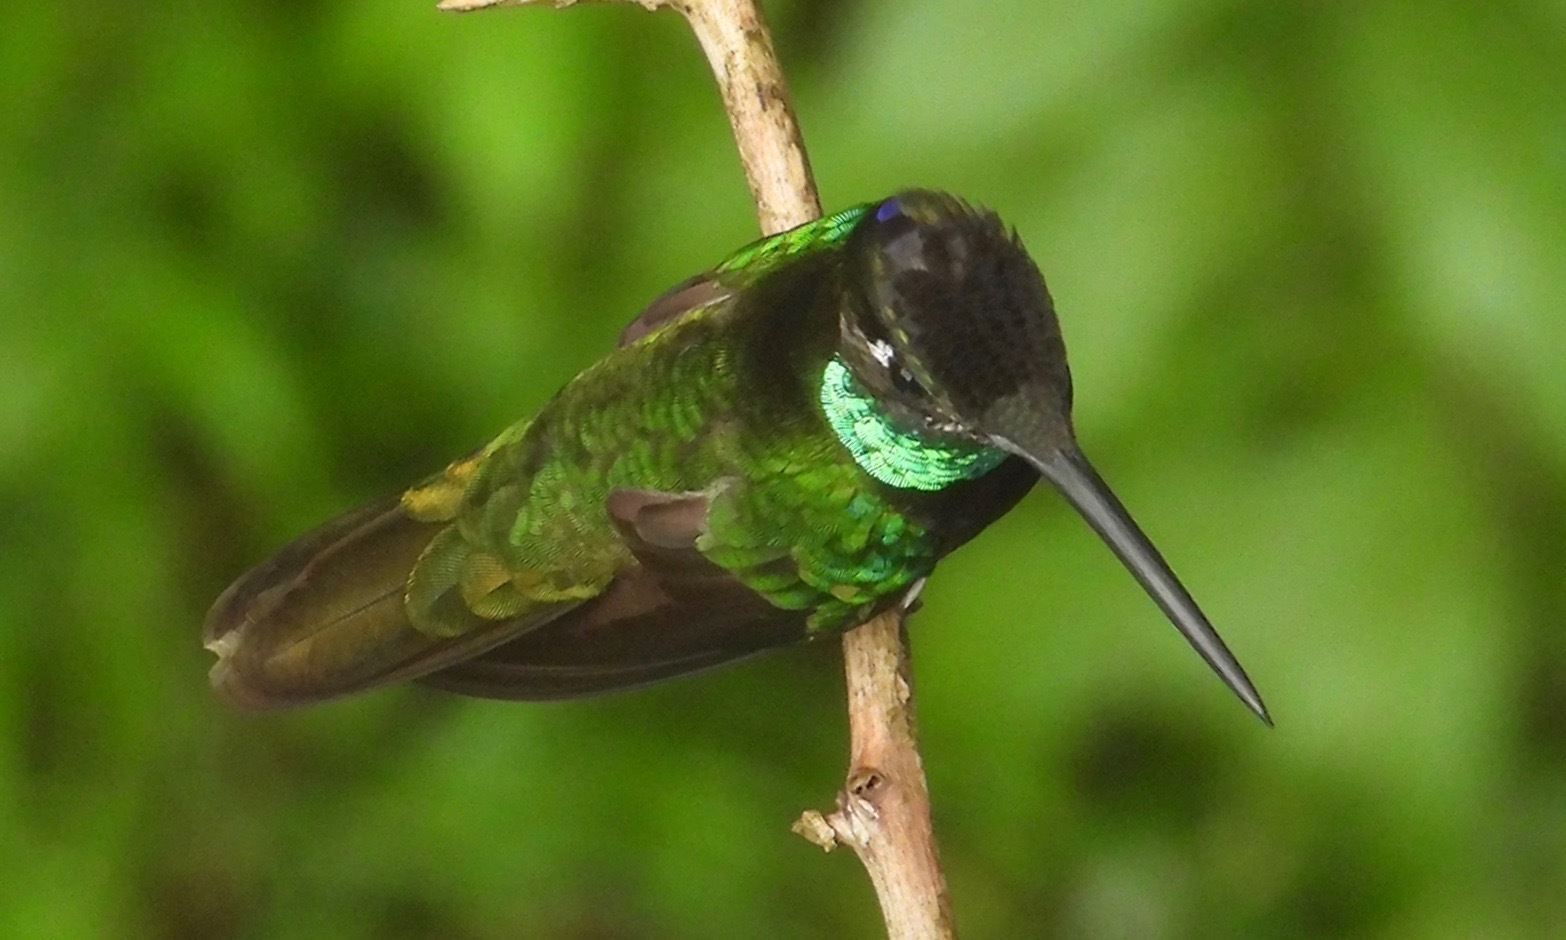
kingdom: Animalia
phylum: Chordata
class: Aves
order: Apodiformes
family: Trochilidae
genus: Eugenes
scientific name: Eugenes fulgens
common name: Magnificent hummingbird
